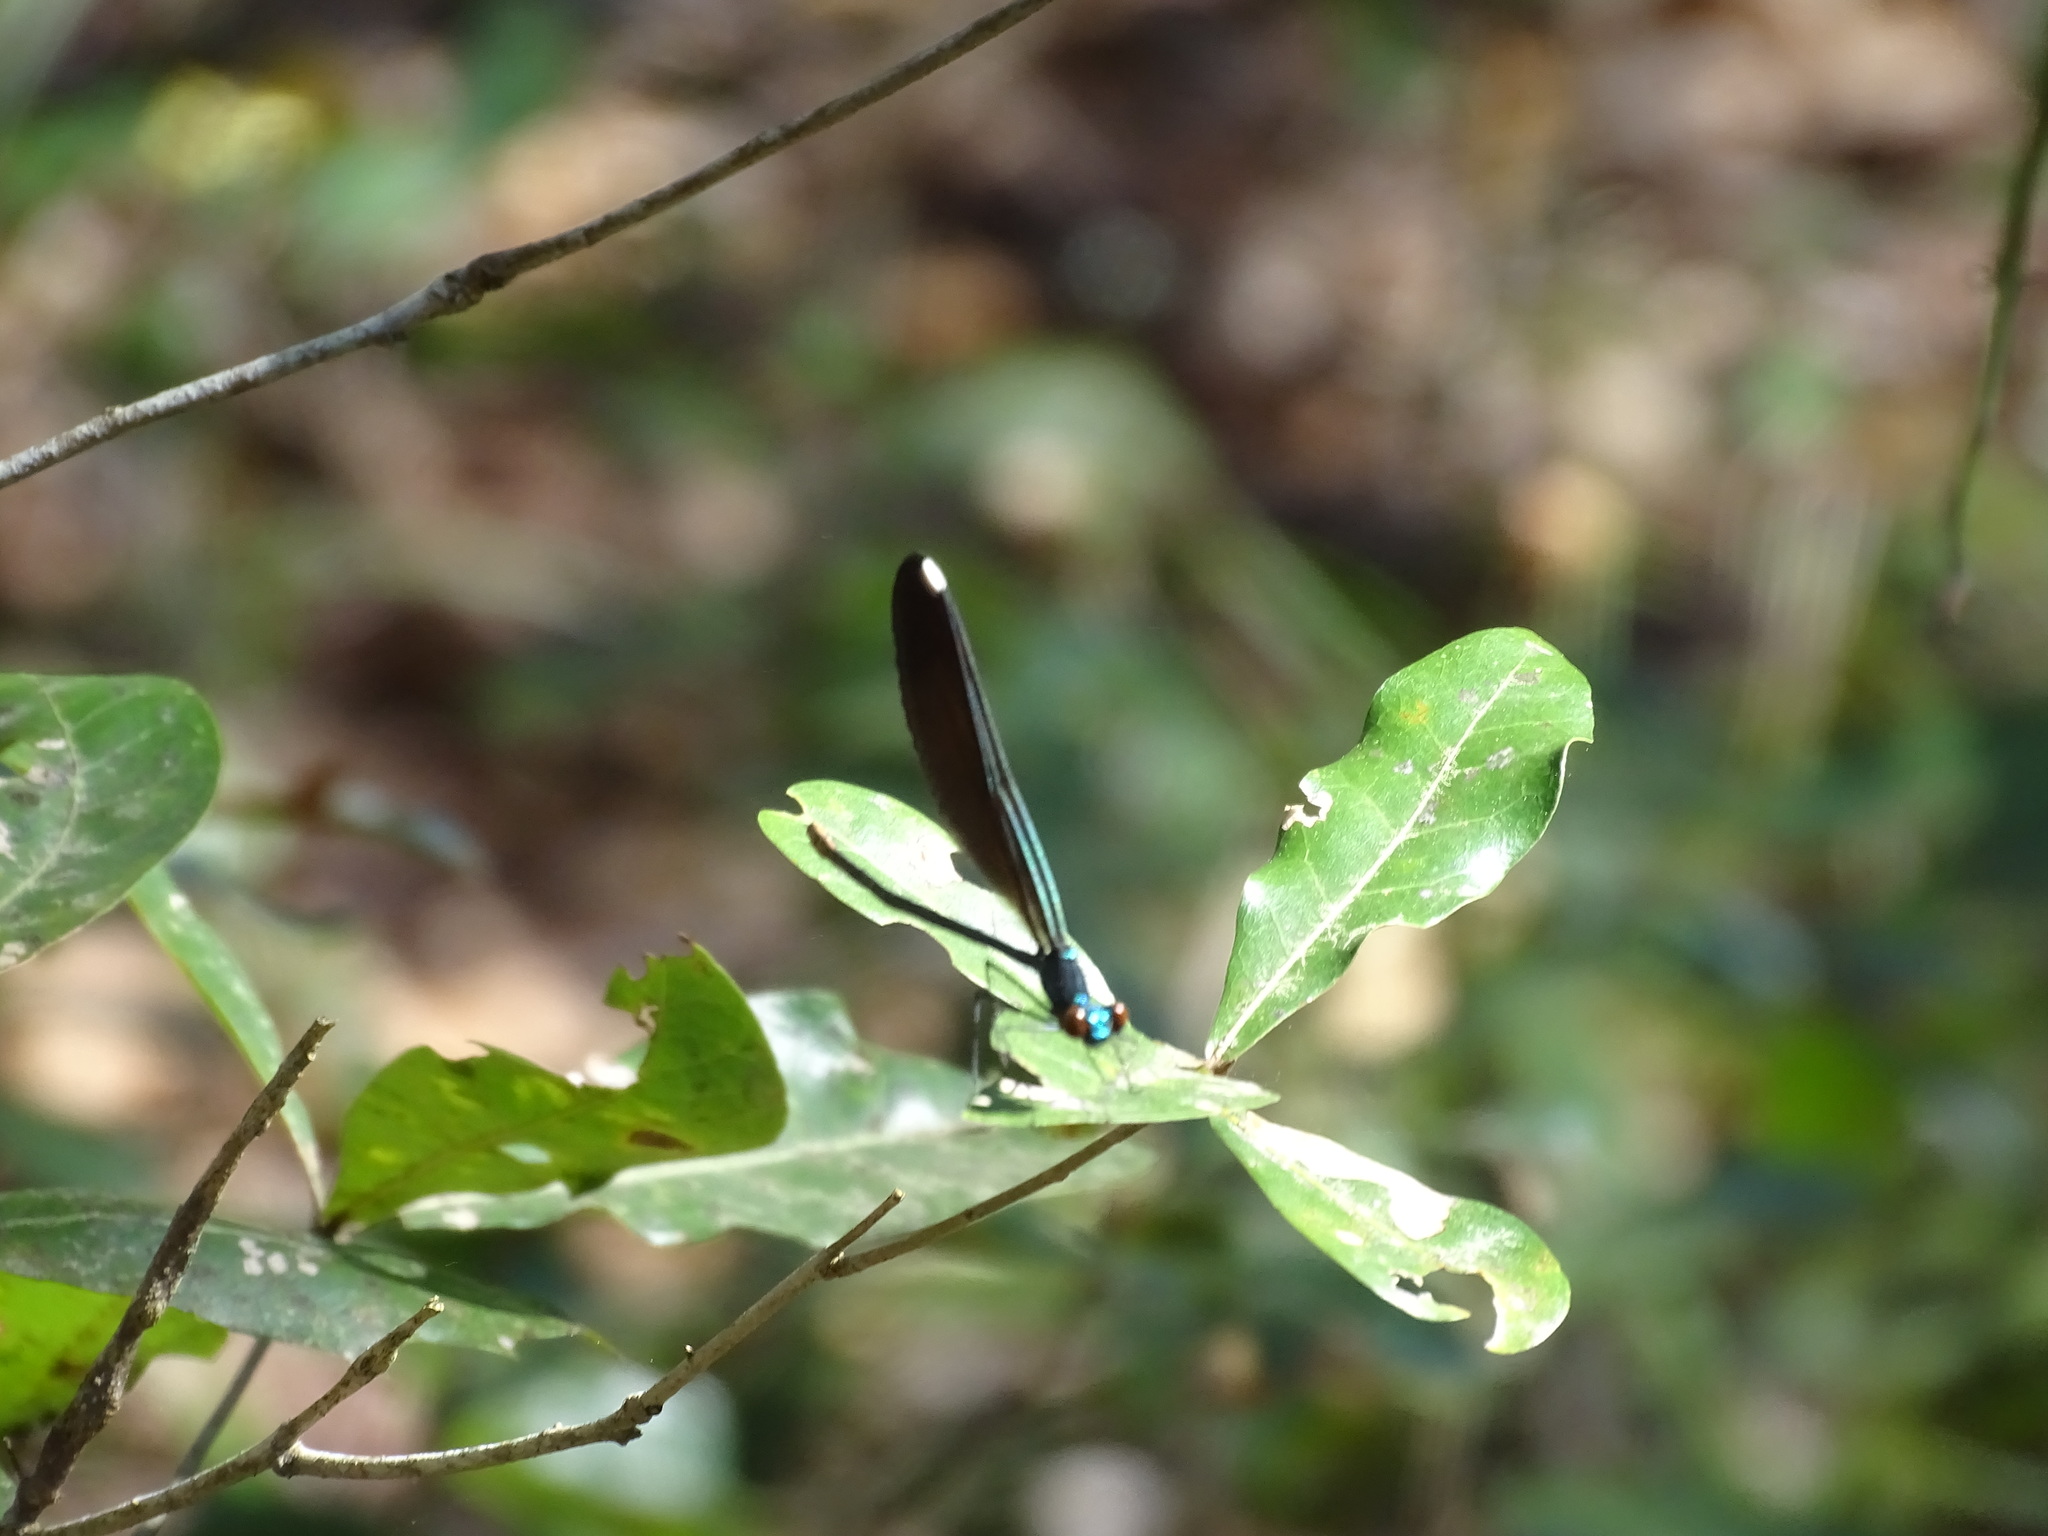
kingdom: Animalia
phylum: Arthropoda
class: Insecta
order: Odonata
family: Calopterygidae
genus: Calopteryx
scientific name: Calopteryx maculata
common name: Ebony jewelwing
